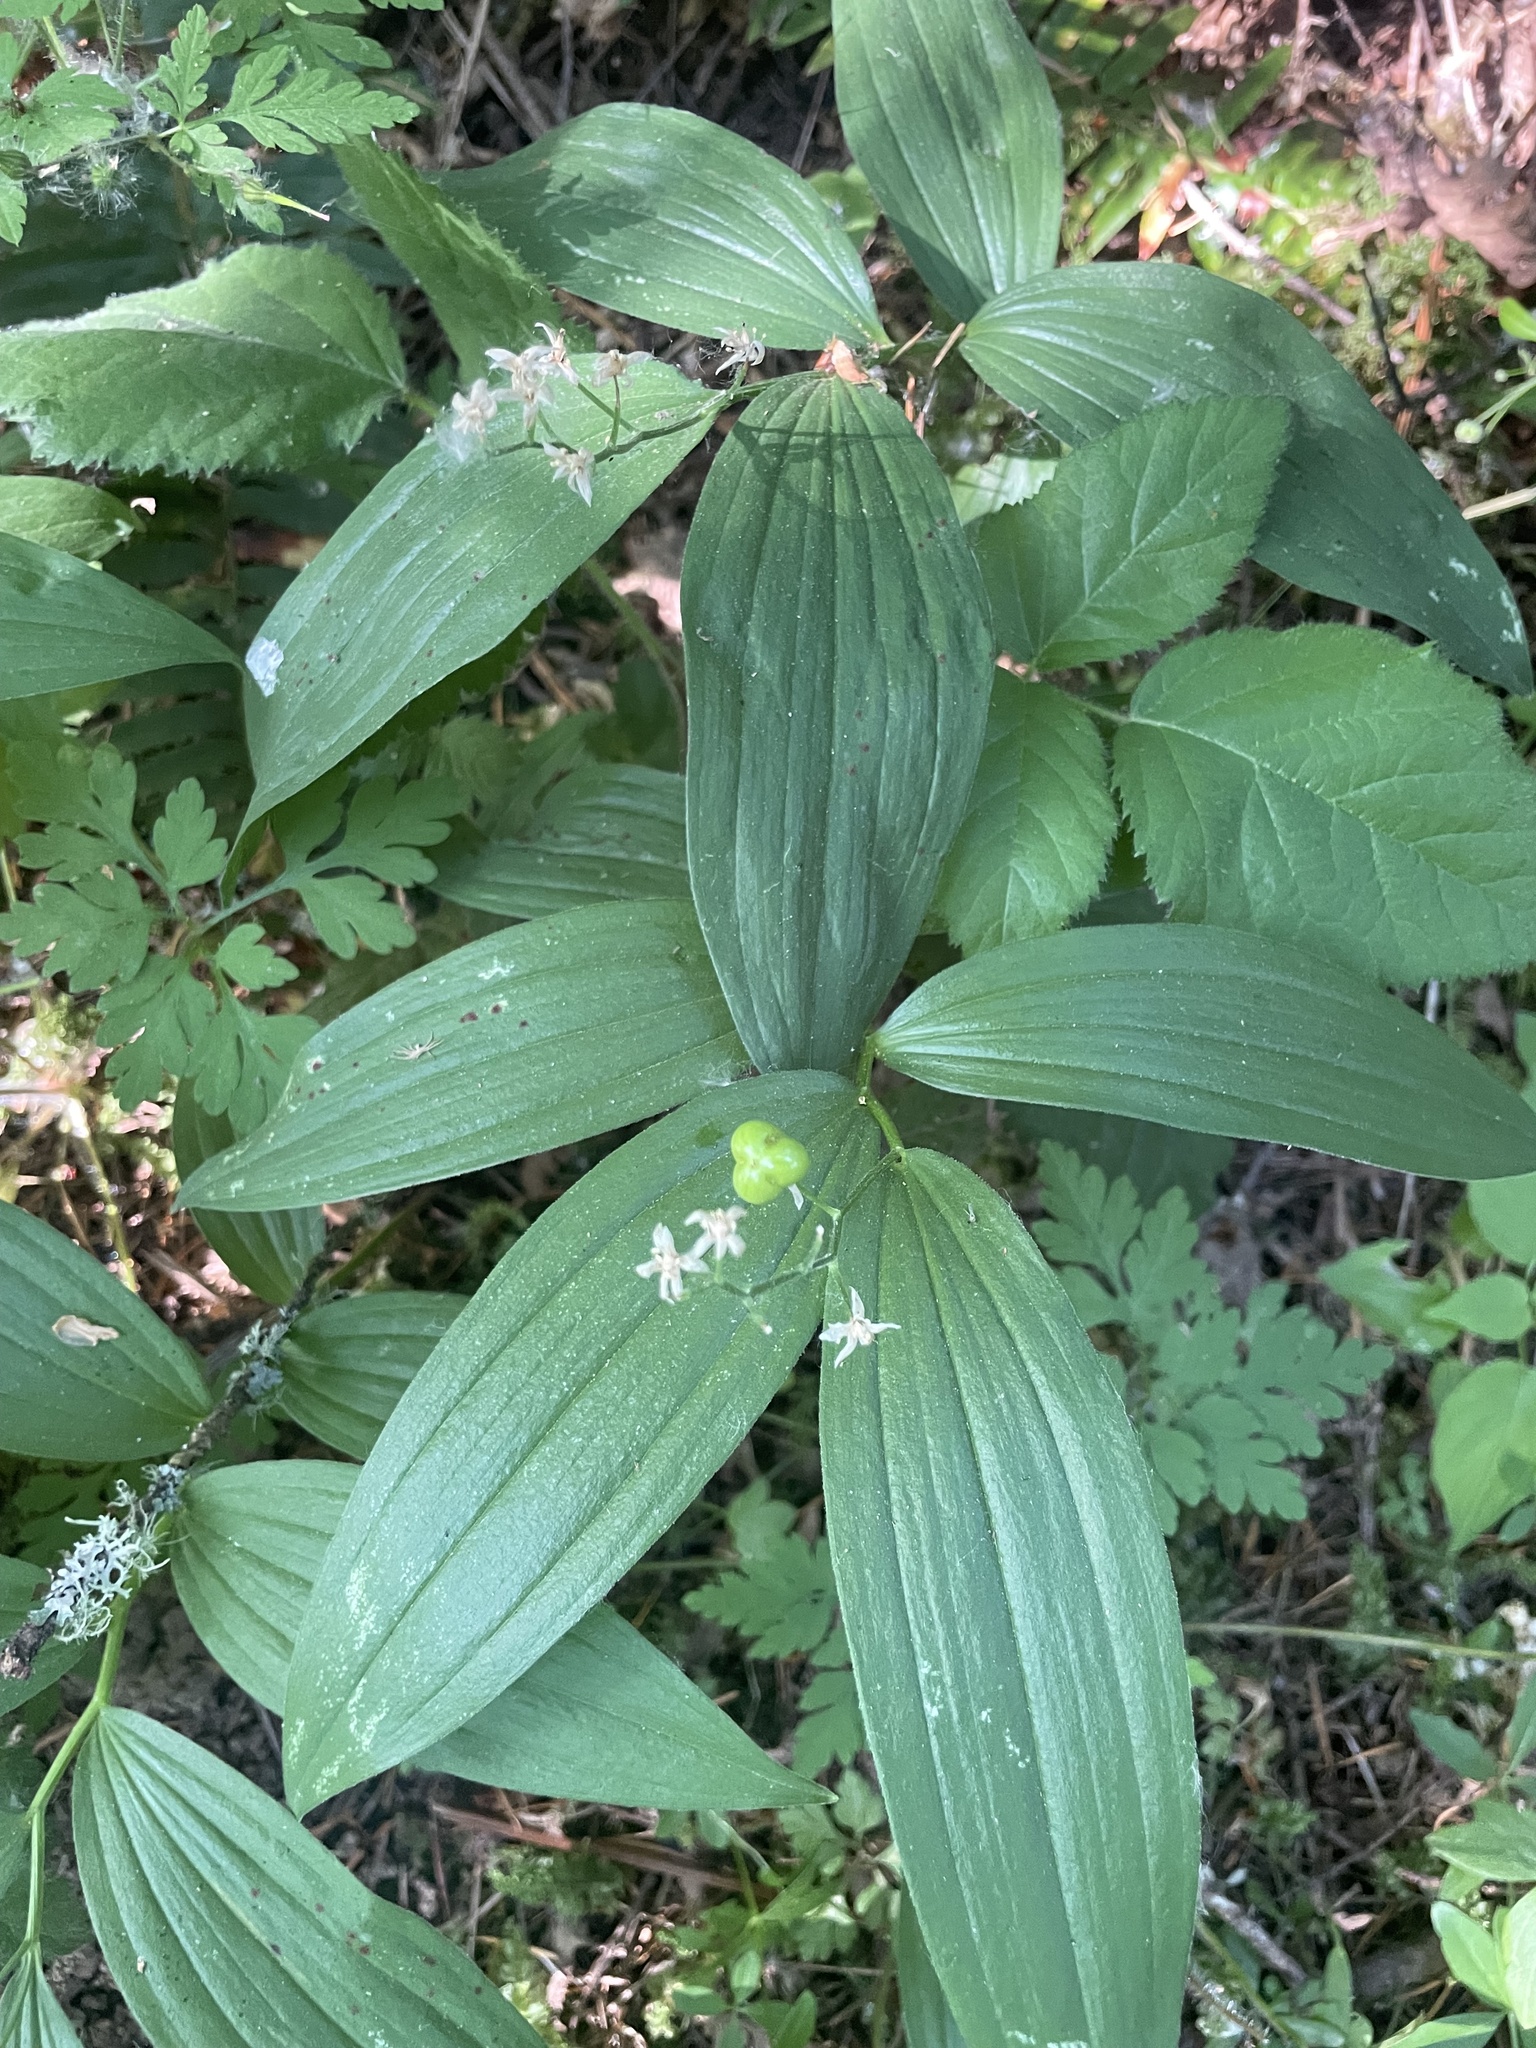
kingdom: Plantae
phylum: Tracheophyta
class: Liliopsida
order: Asparagales
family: Asparagaceae
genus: Maianthemum
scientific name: Maianthemum stellatum
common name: Little false solomon's seal
